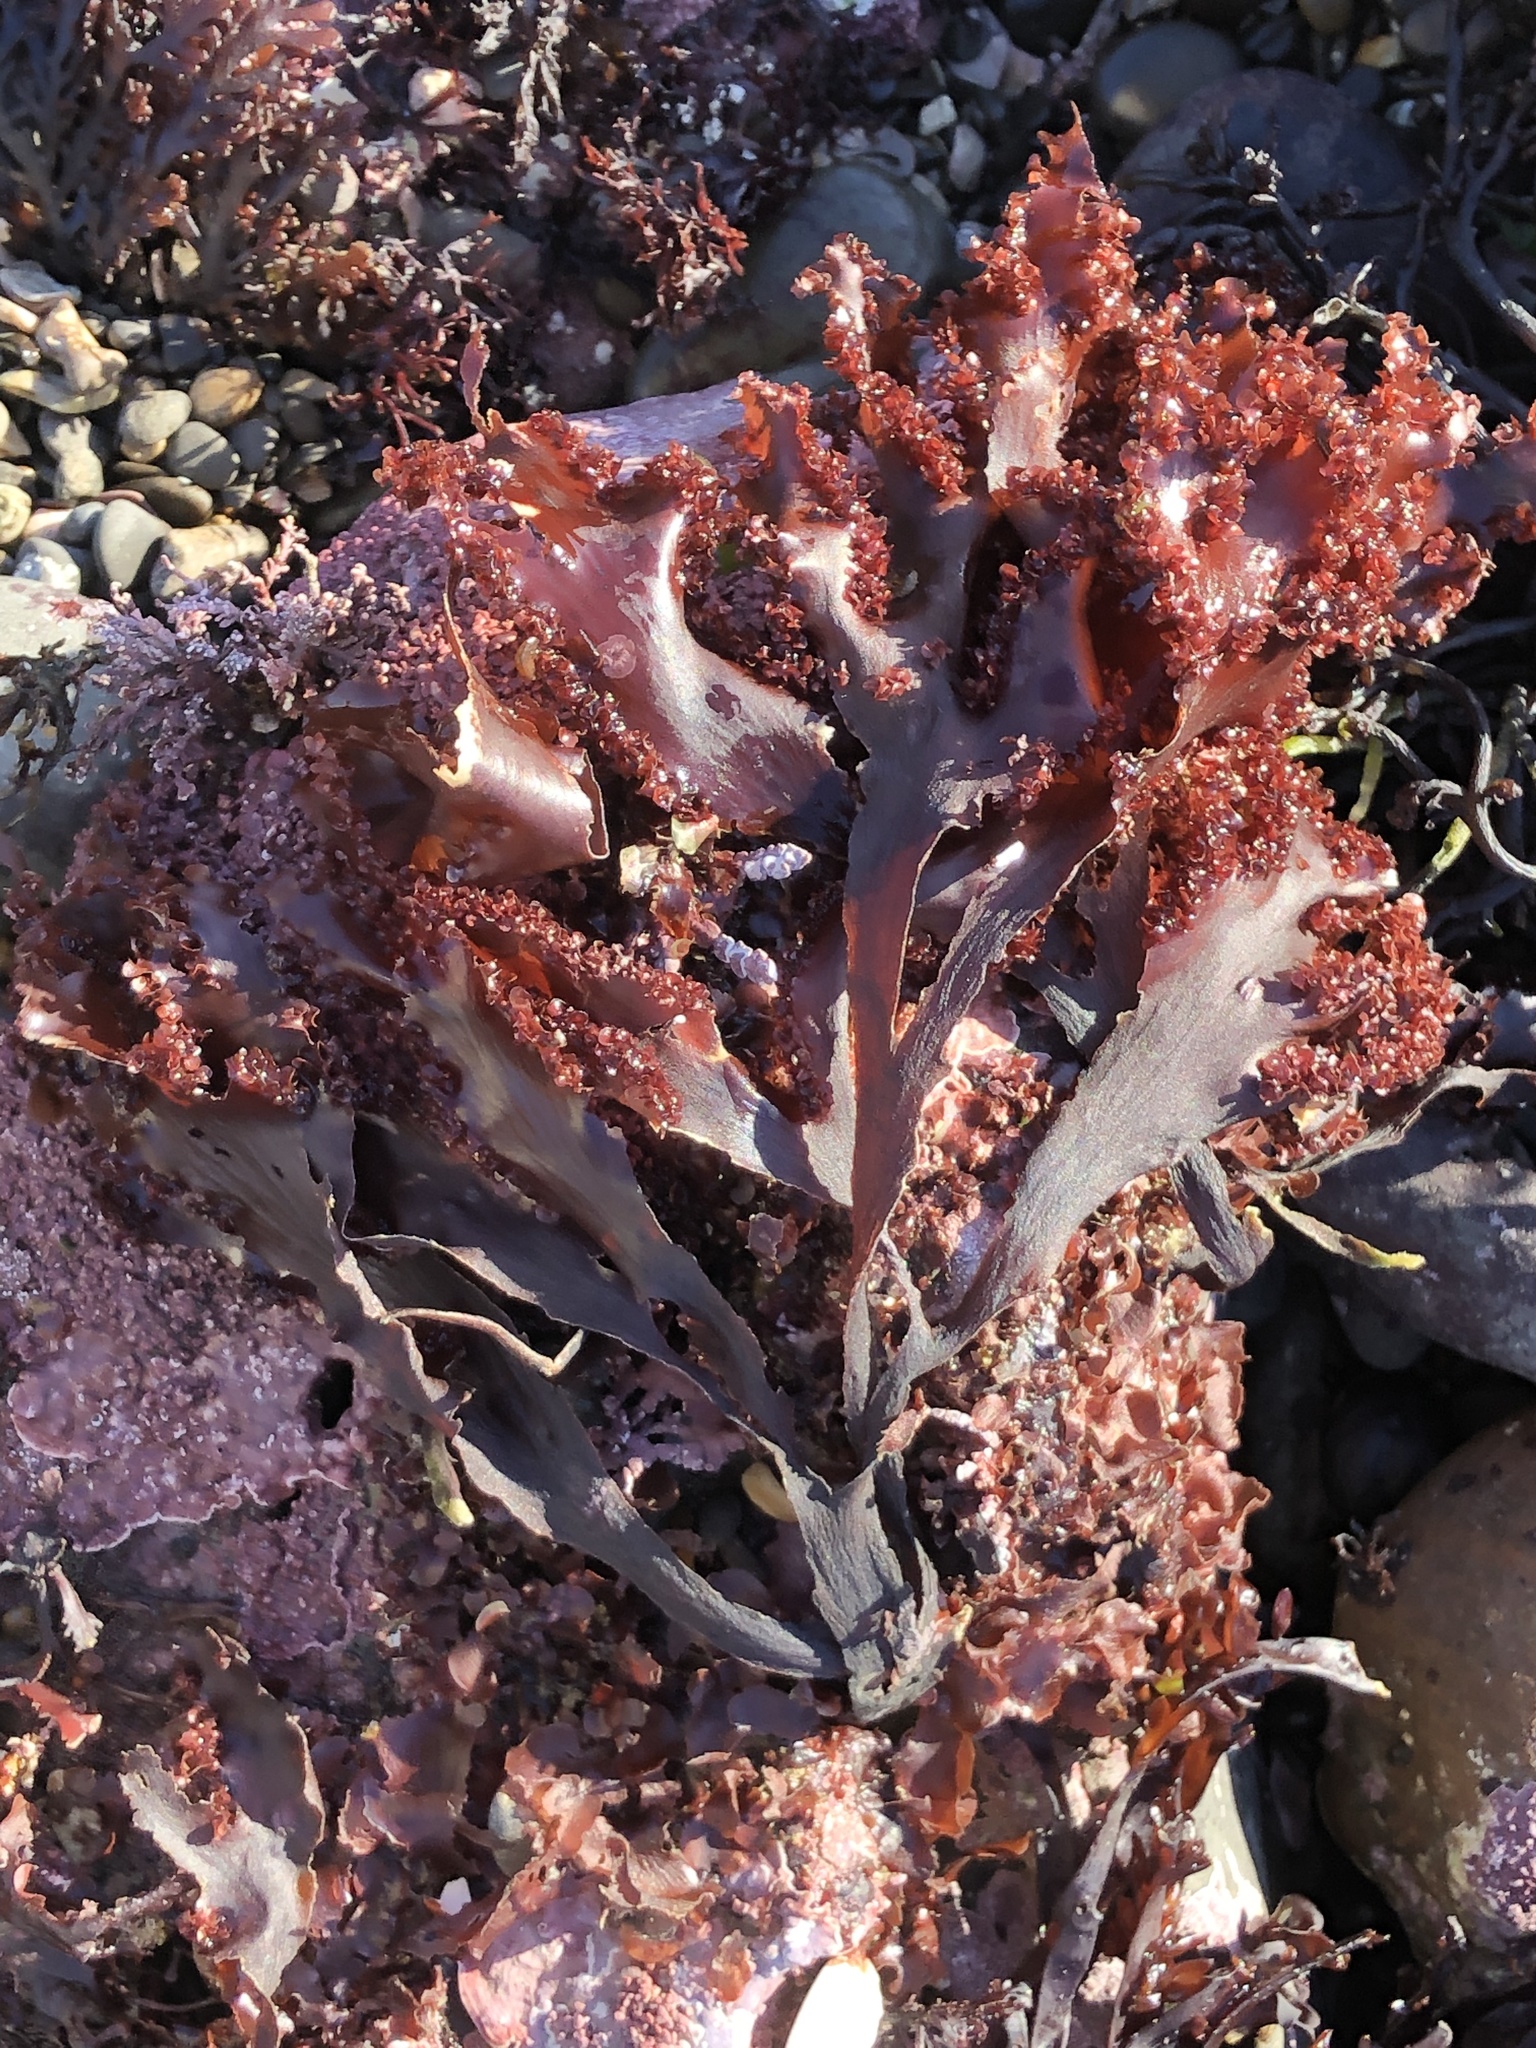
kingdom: Plantae
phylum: Rhodophyta
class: Florideophyceae
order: Ceramiales
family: Delesseriaceae
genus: Cryptopleura
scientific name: Cryptopleura ruprechtiana
